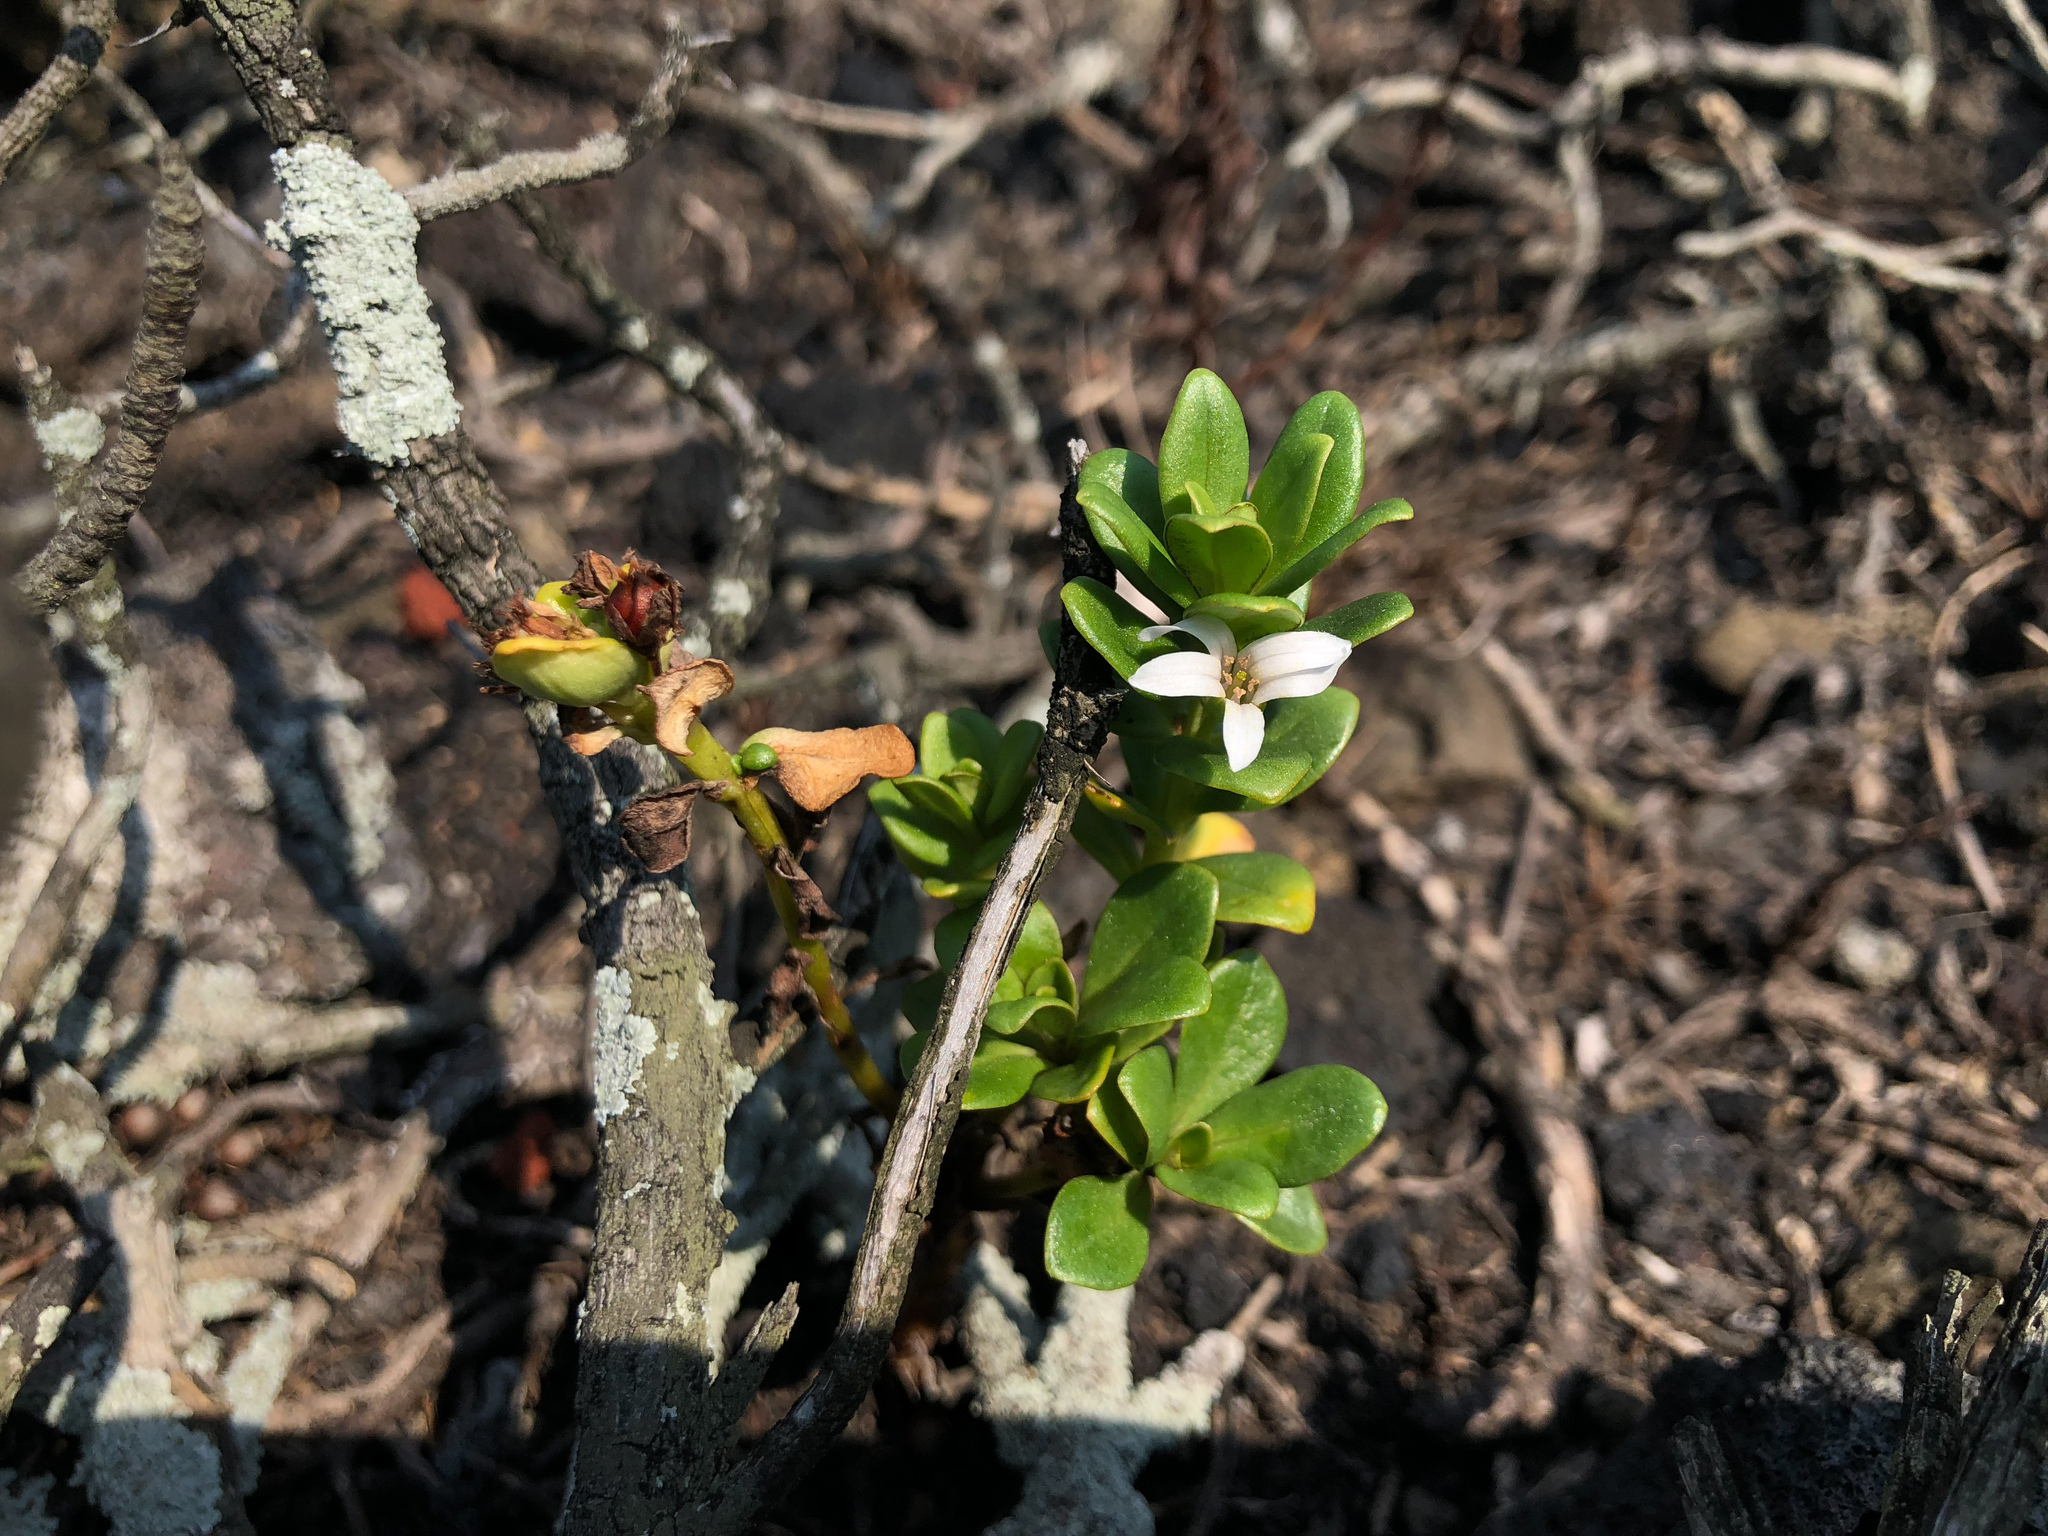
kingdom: Plantae
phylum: Tracheophyta
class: Magnoliopsida
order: Ericales
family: Primulaceae
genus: Lysimachia
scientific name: Lysimachia mauritiana
